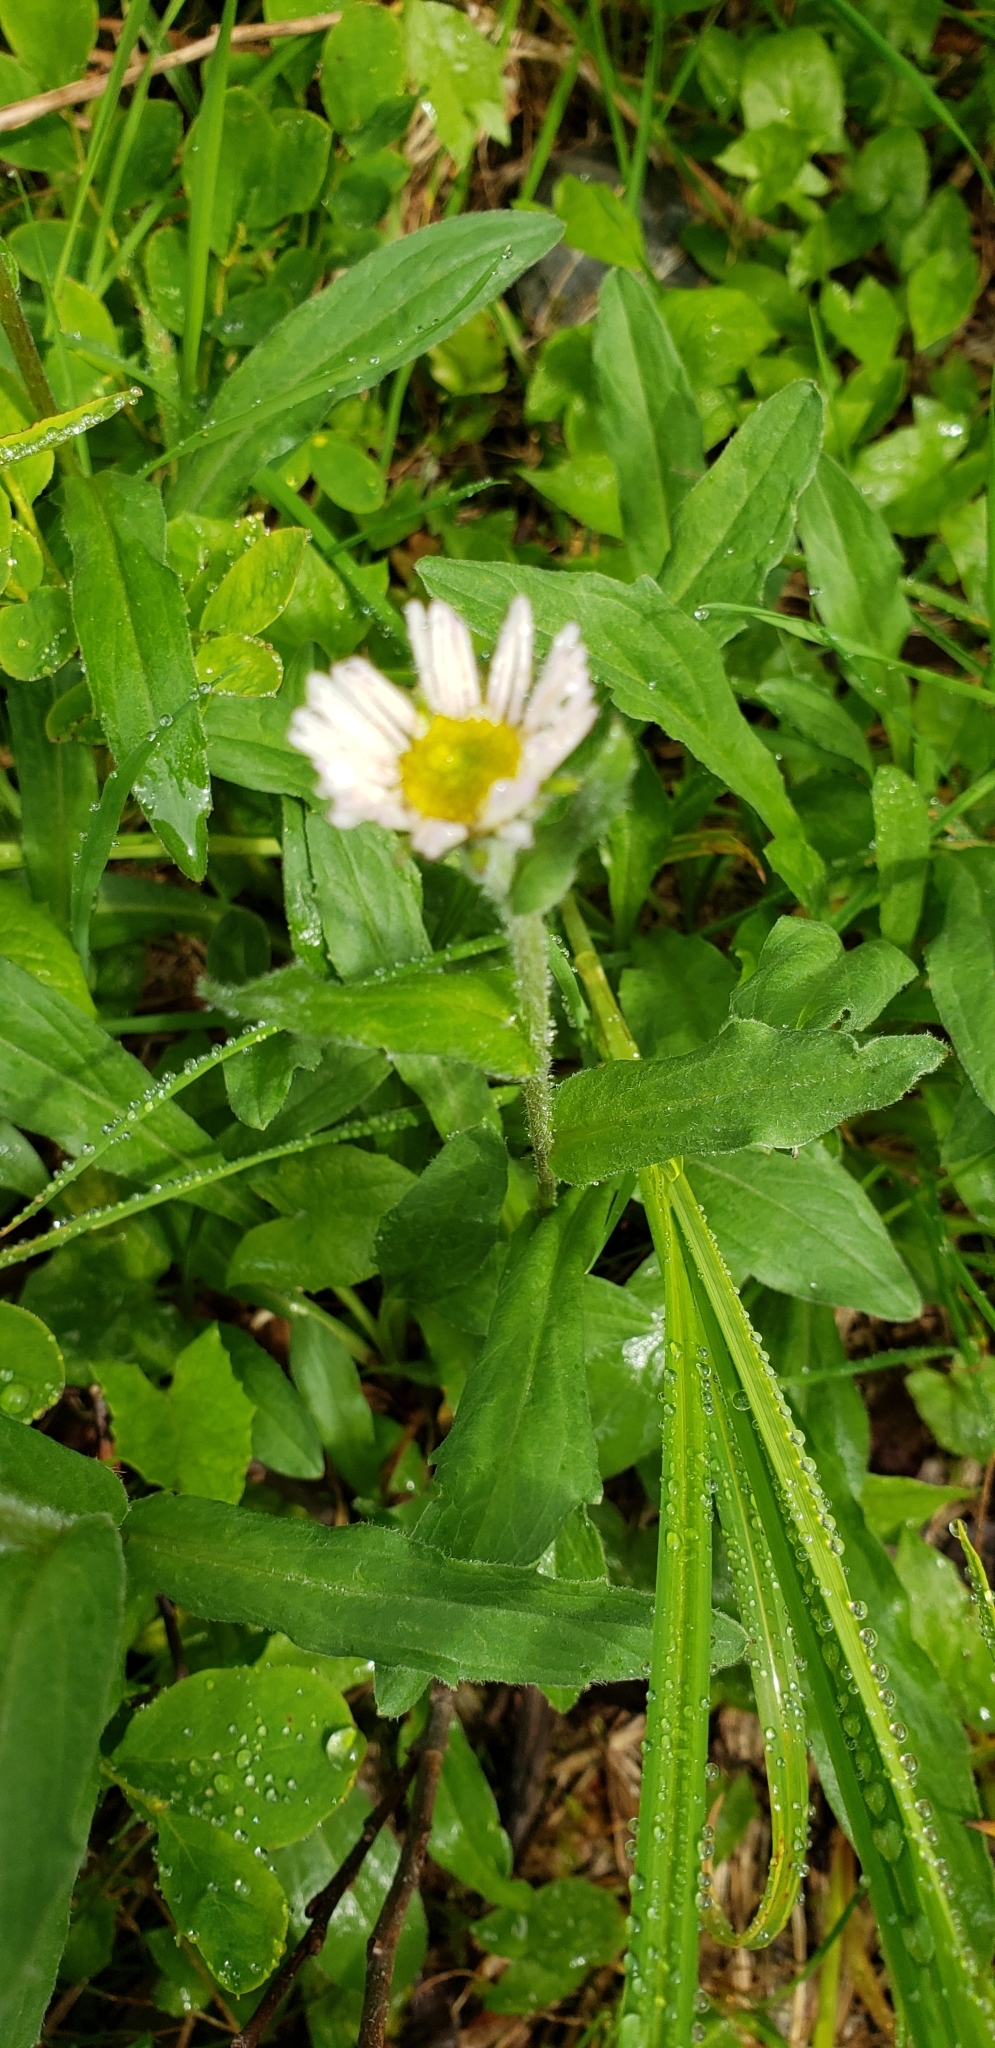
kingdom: Plantae
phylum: Tracheophyta
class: Magnoliopsida
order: Asterales
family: Asteraceae
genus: Erigeron
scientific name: Erigeron peregrinus
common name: Peregrine fleabane
